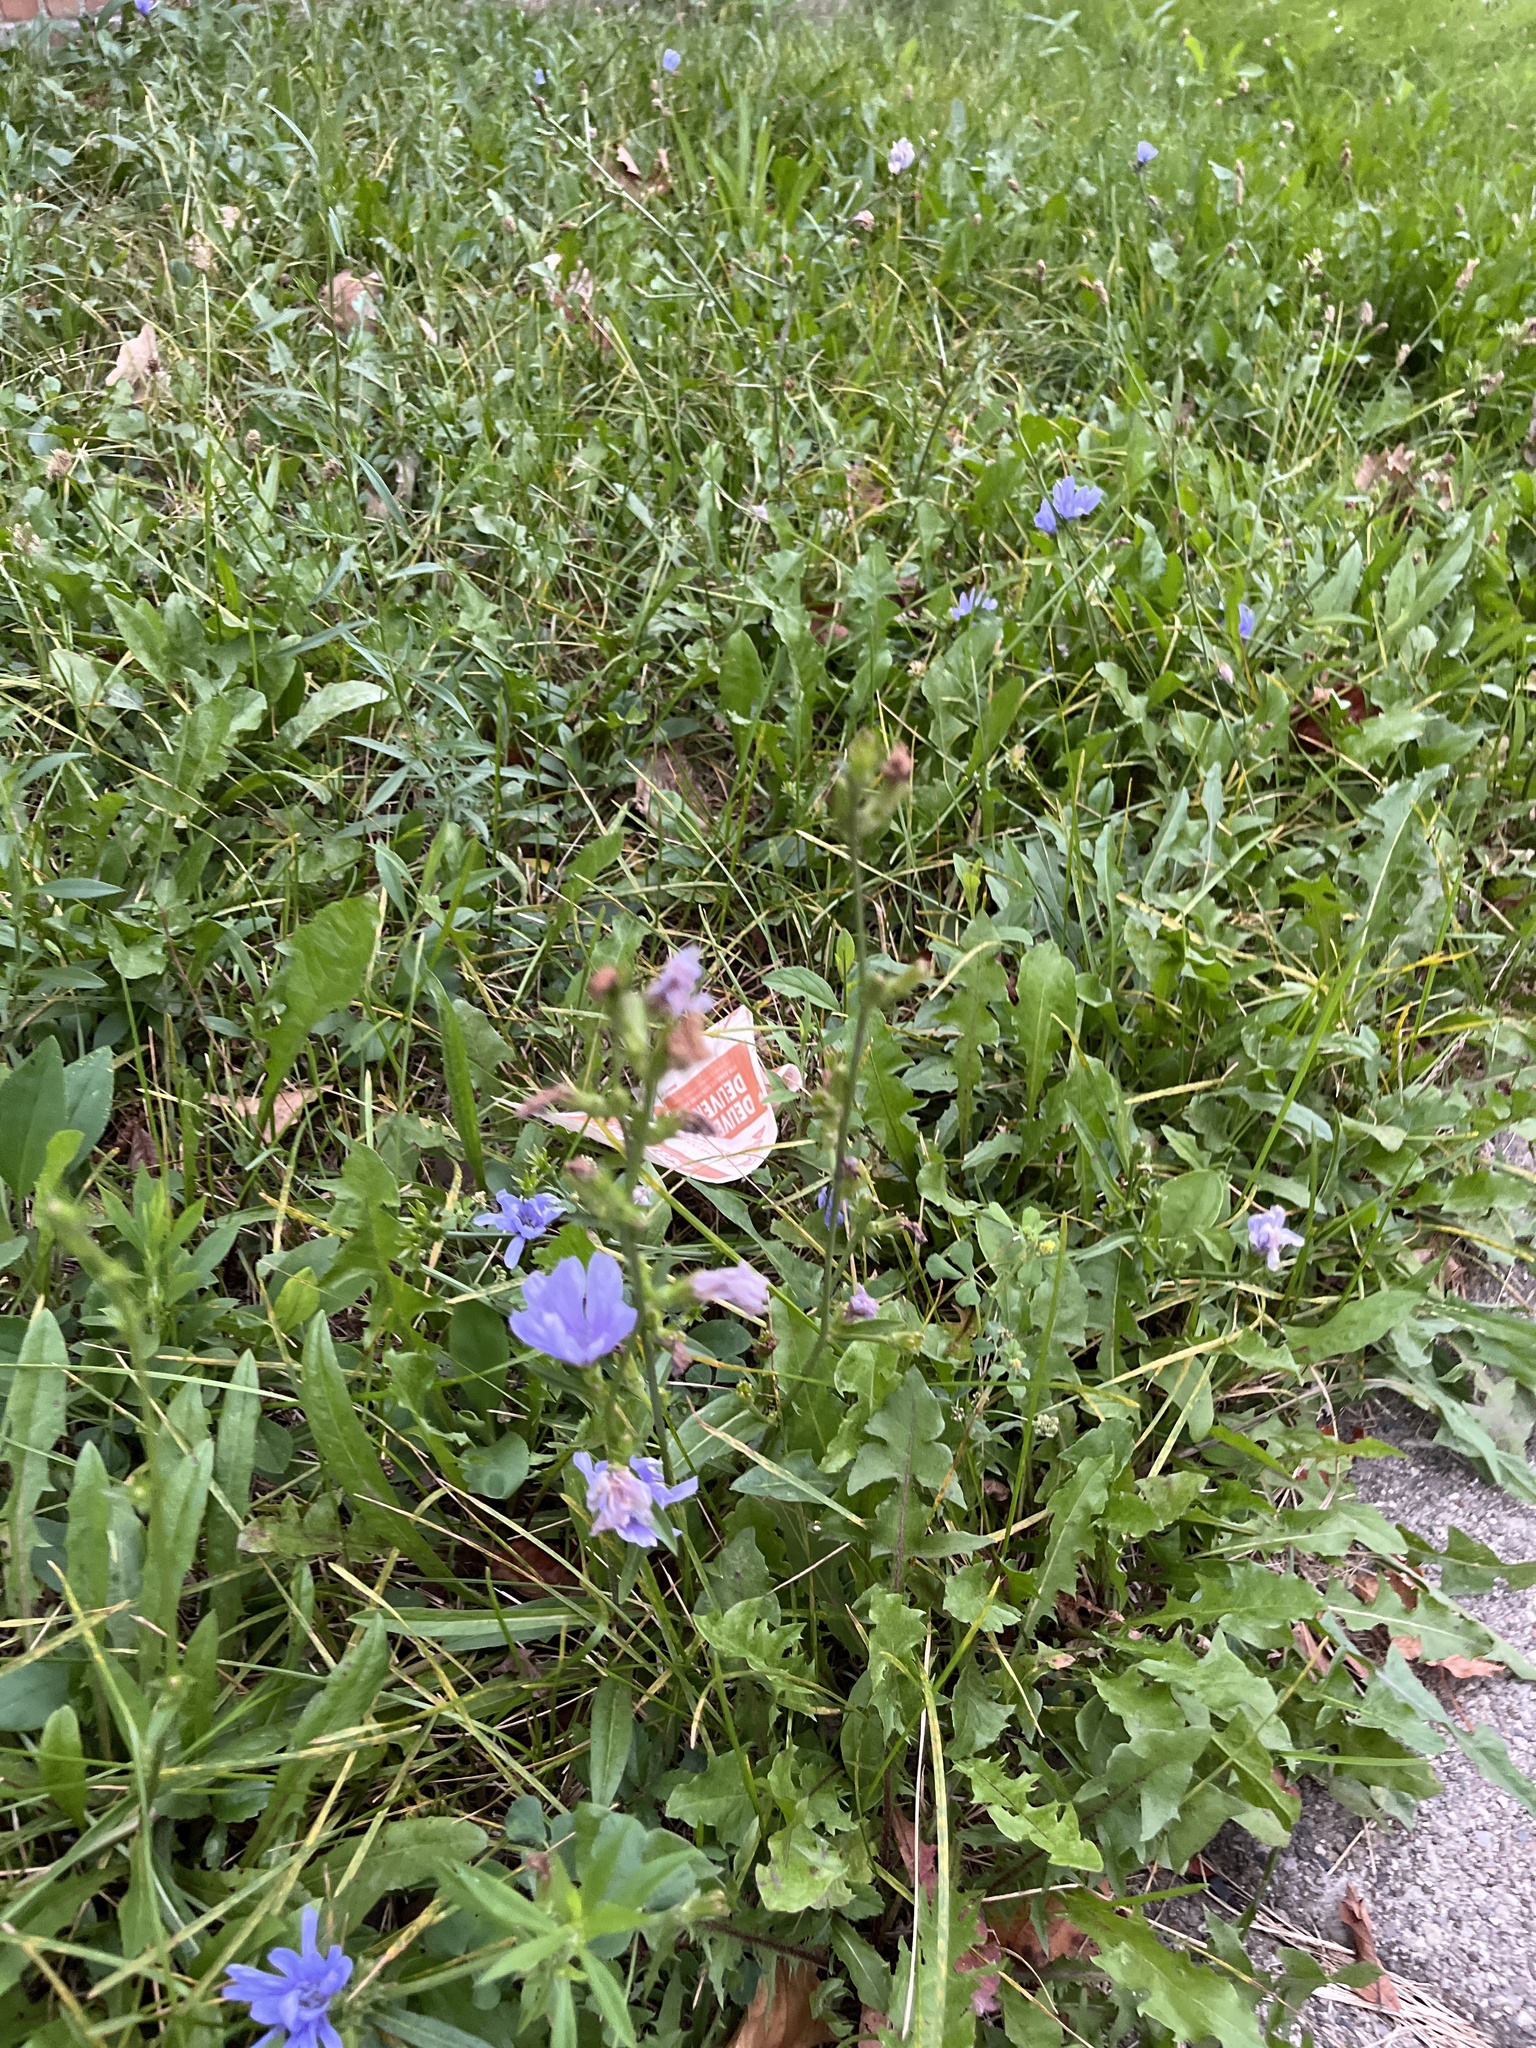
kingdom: Plantae
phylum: Tracheophyta
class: Magnoliopsida
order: Asterales
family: Asteraceae
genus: Cichorium
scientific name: Cichorium intybus
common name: Chicory
